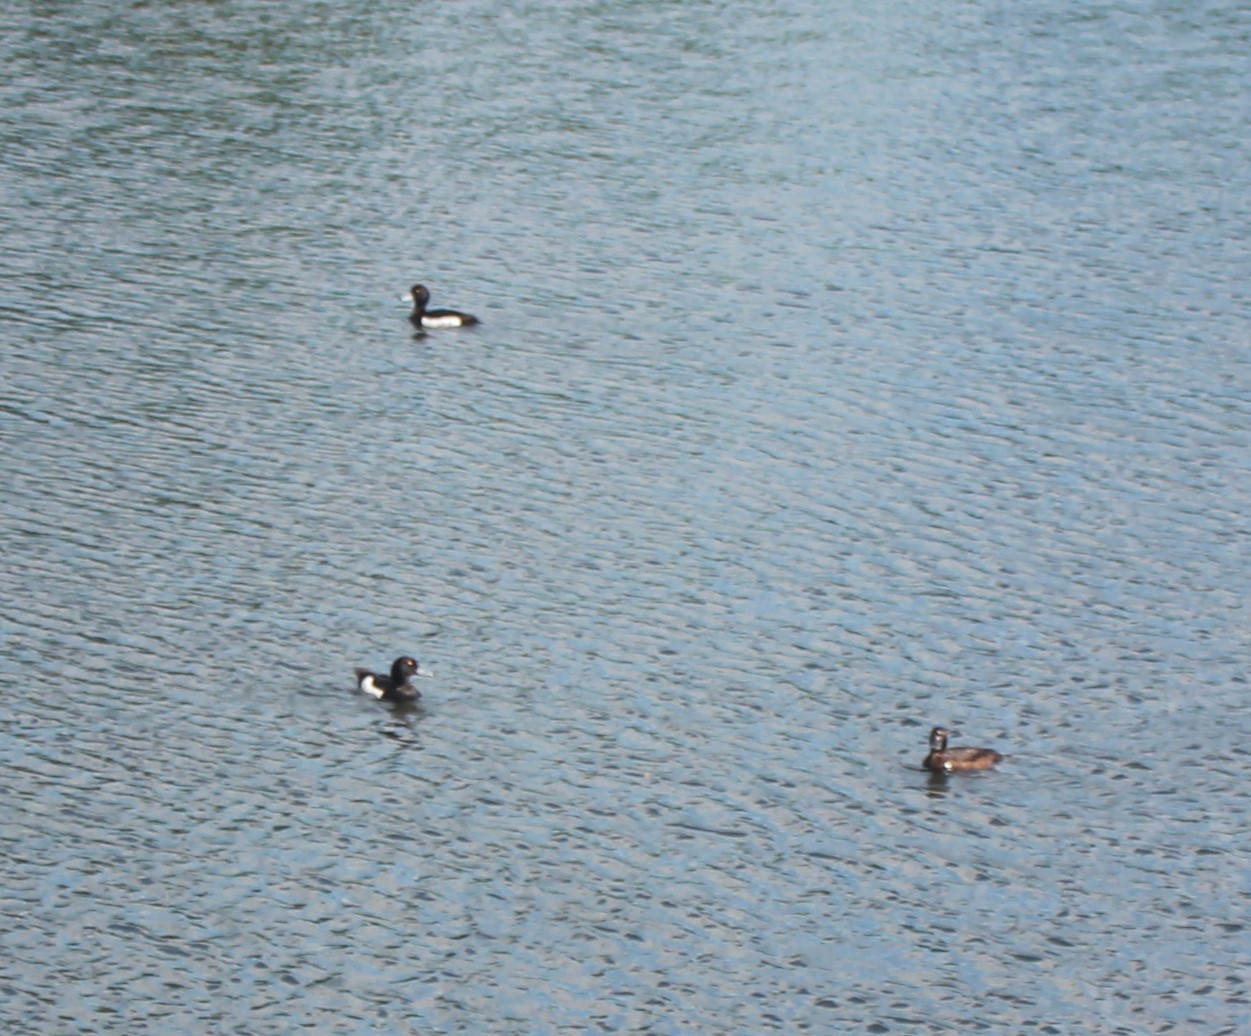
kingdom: Animalia
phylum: Chordata
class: Aves
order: Anseriformes
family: Anatidae
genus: Aythya
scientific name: Aythya fuligula
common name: Tufted duck
